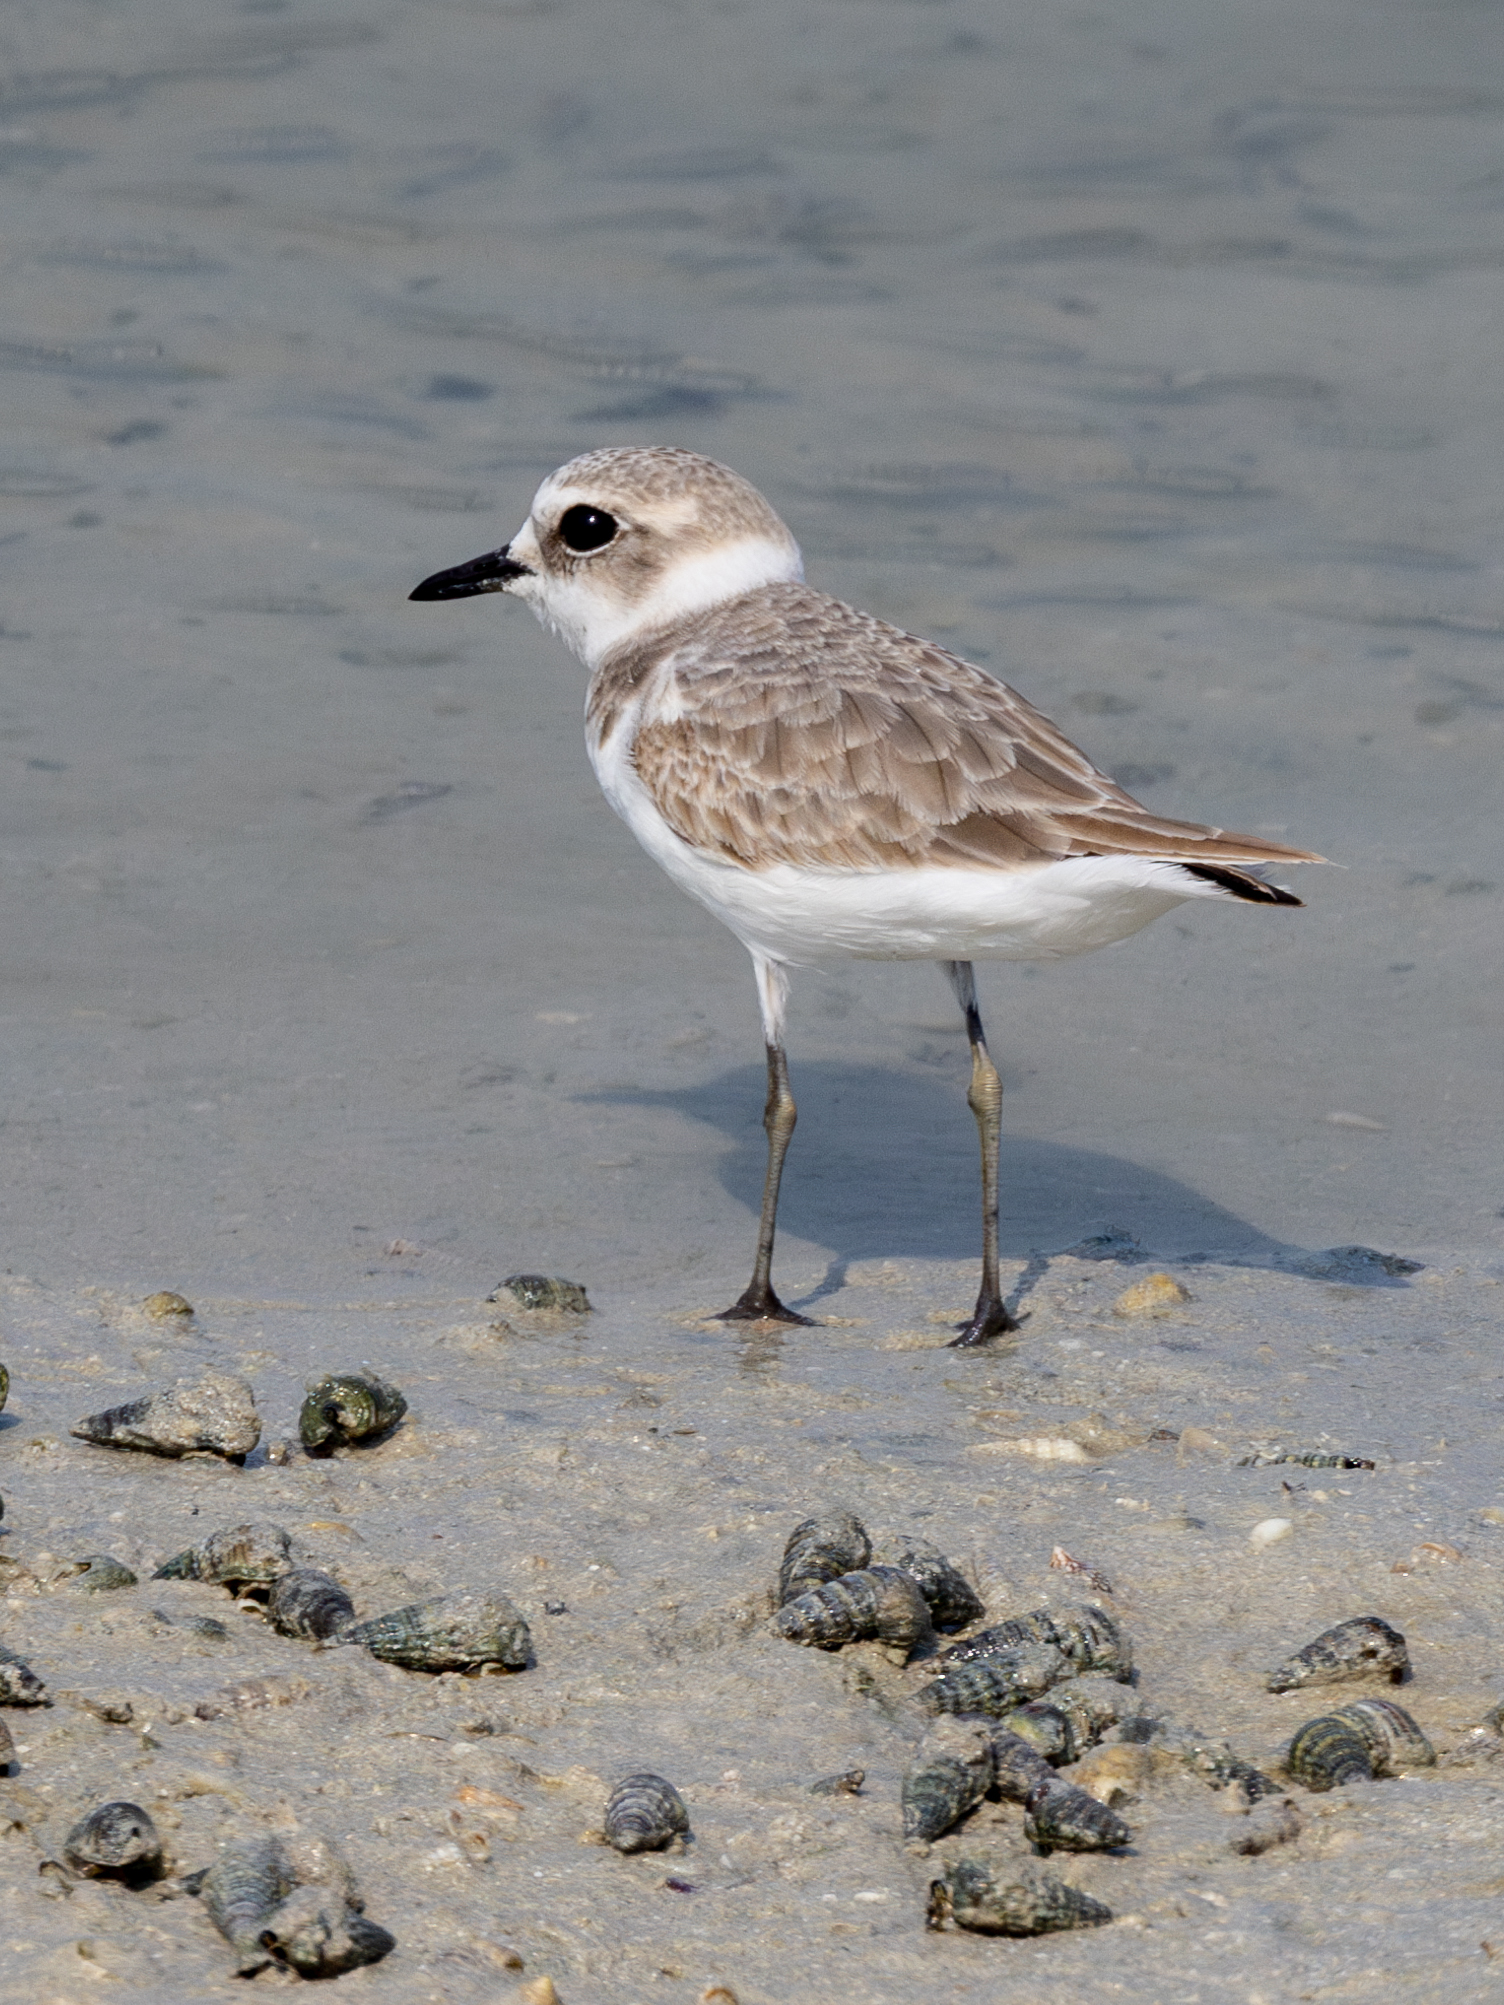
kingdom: Animalia
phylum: Chordata
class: Aves
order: Charadriiformes
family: Charadriidae
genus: Charadrius
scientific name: Charadrius alexandrinus
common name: Kentish plover
